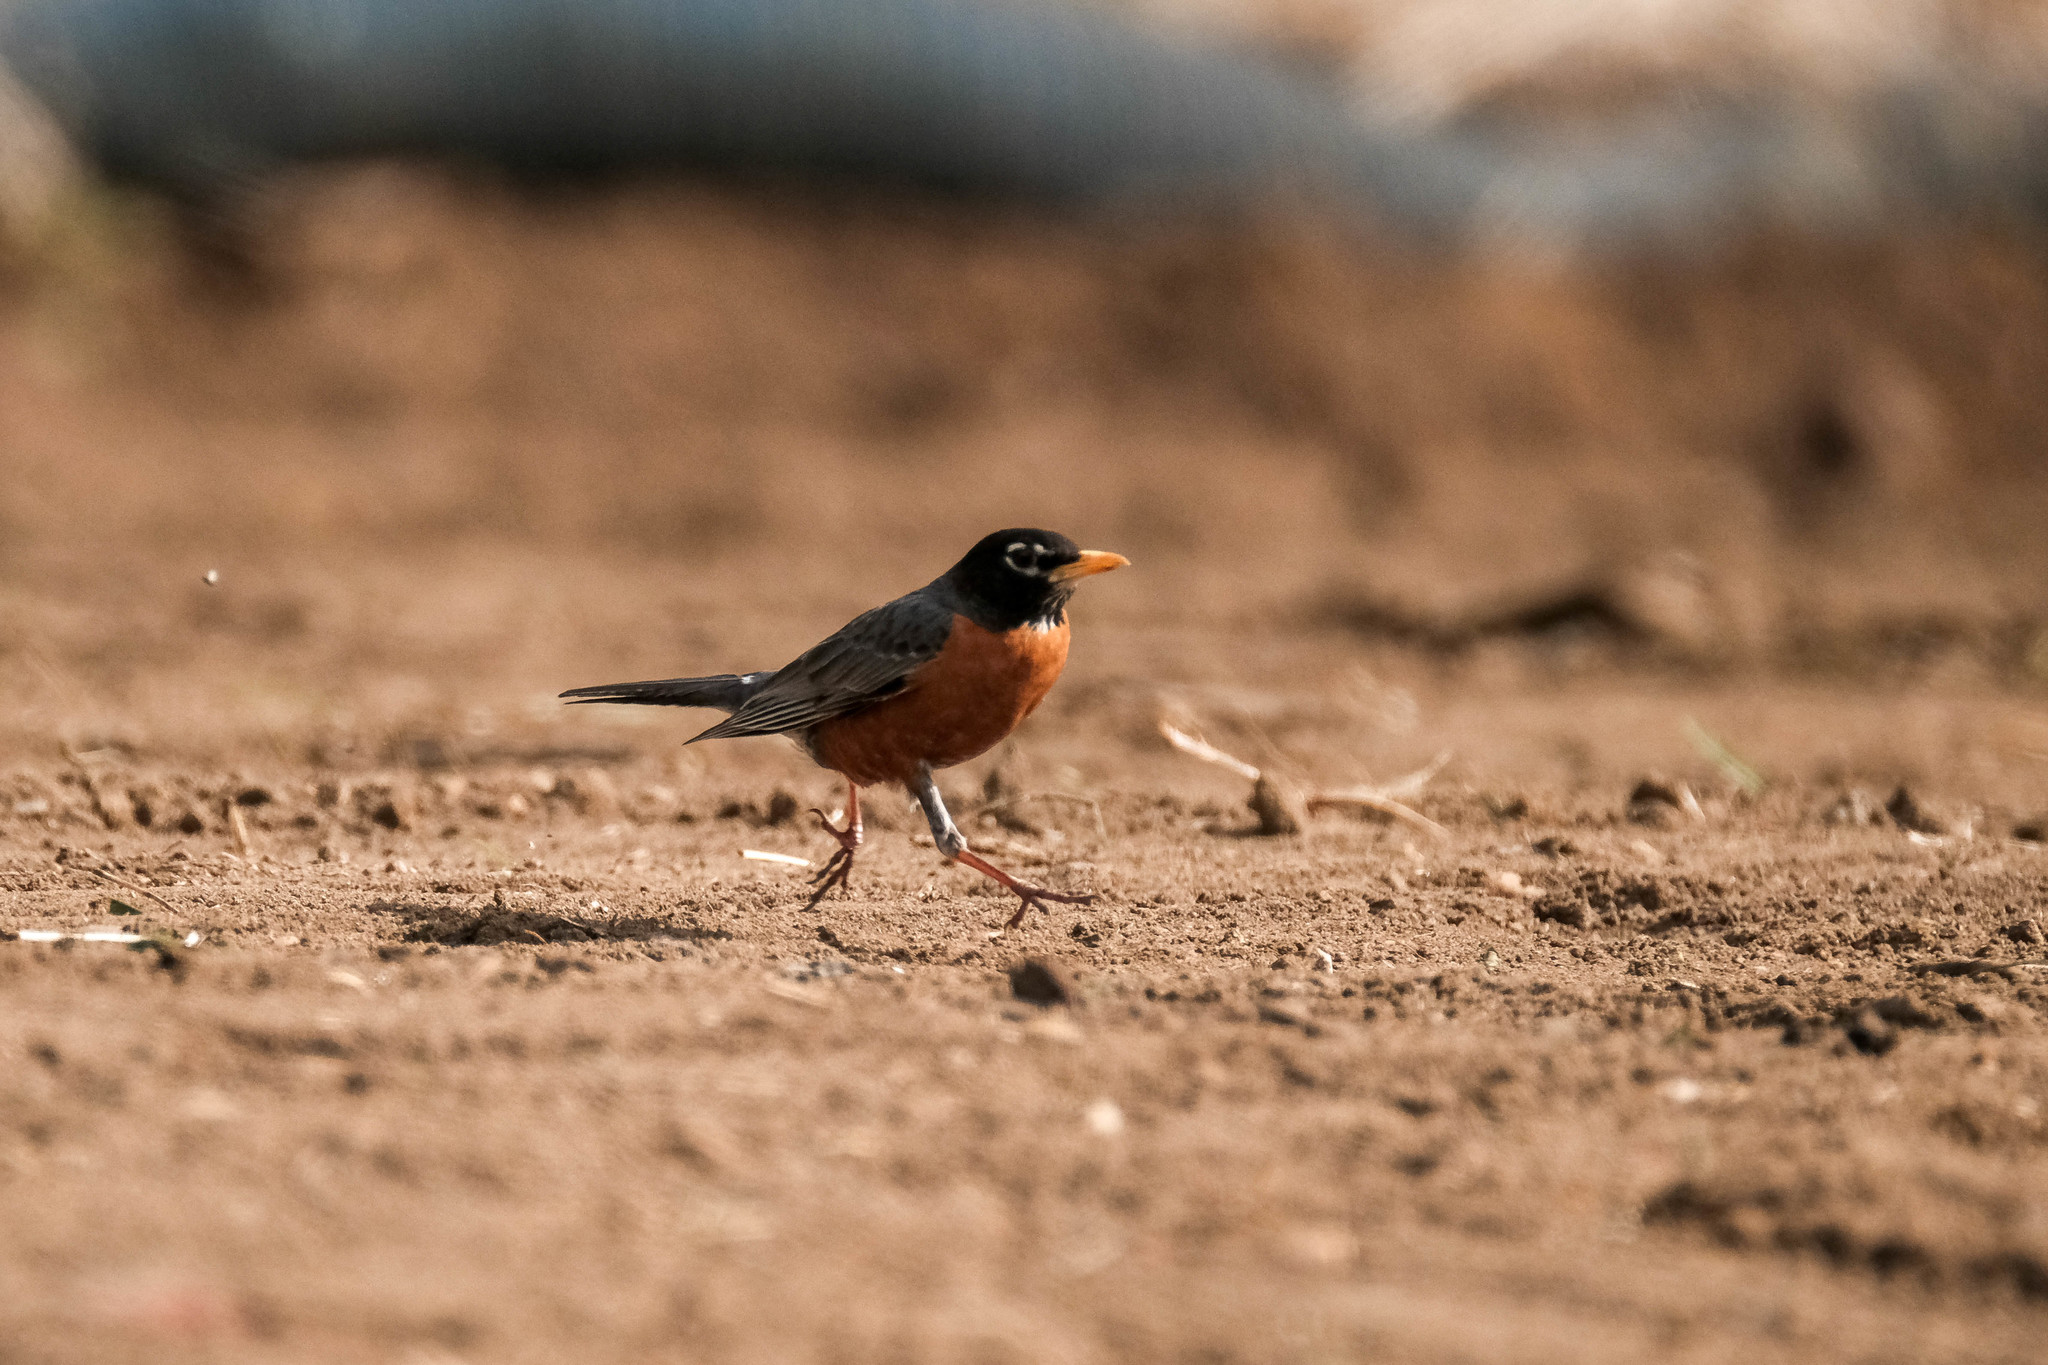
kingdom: Animalia
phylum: Chordata
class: Aves
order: Passeriformes
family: Turdidae
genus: Turdus
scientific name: Turdus migratorius
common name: American robin
